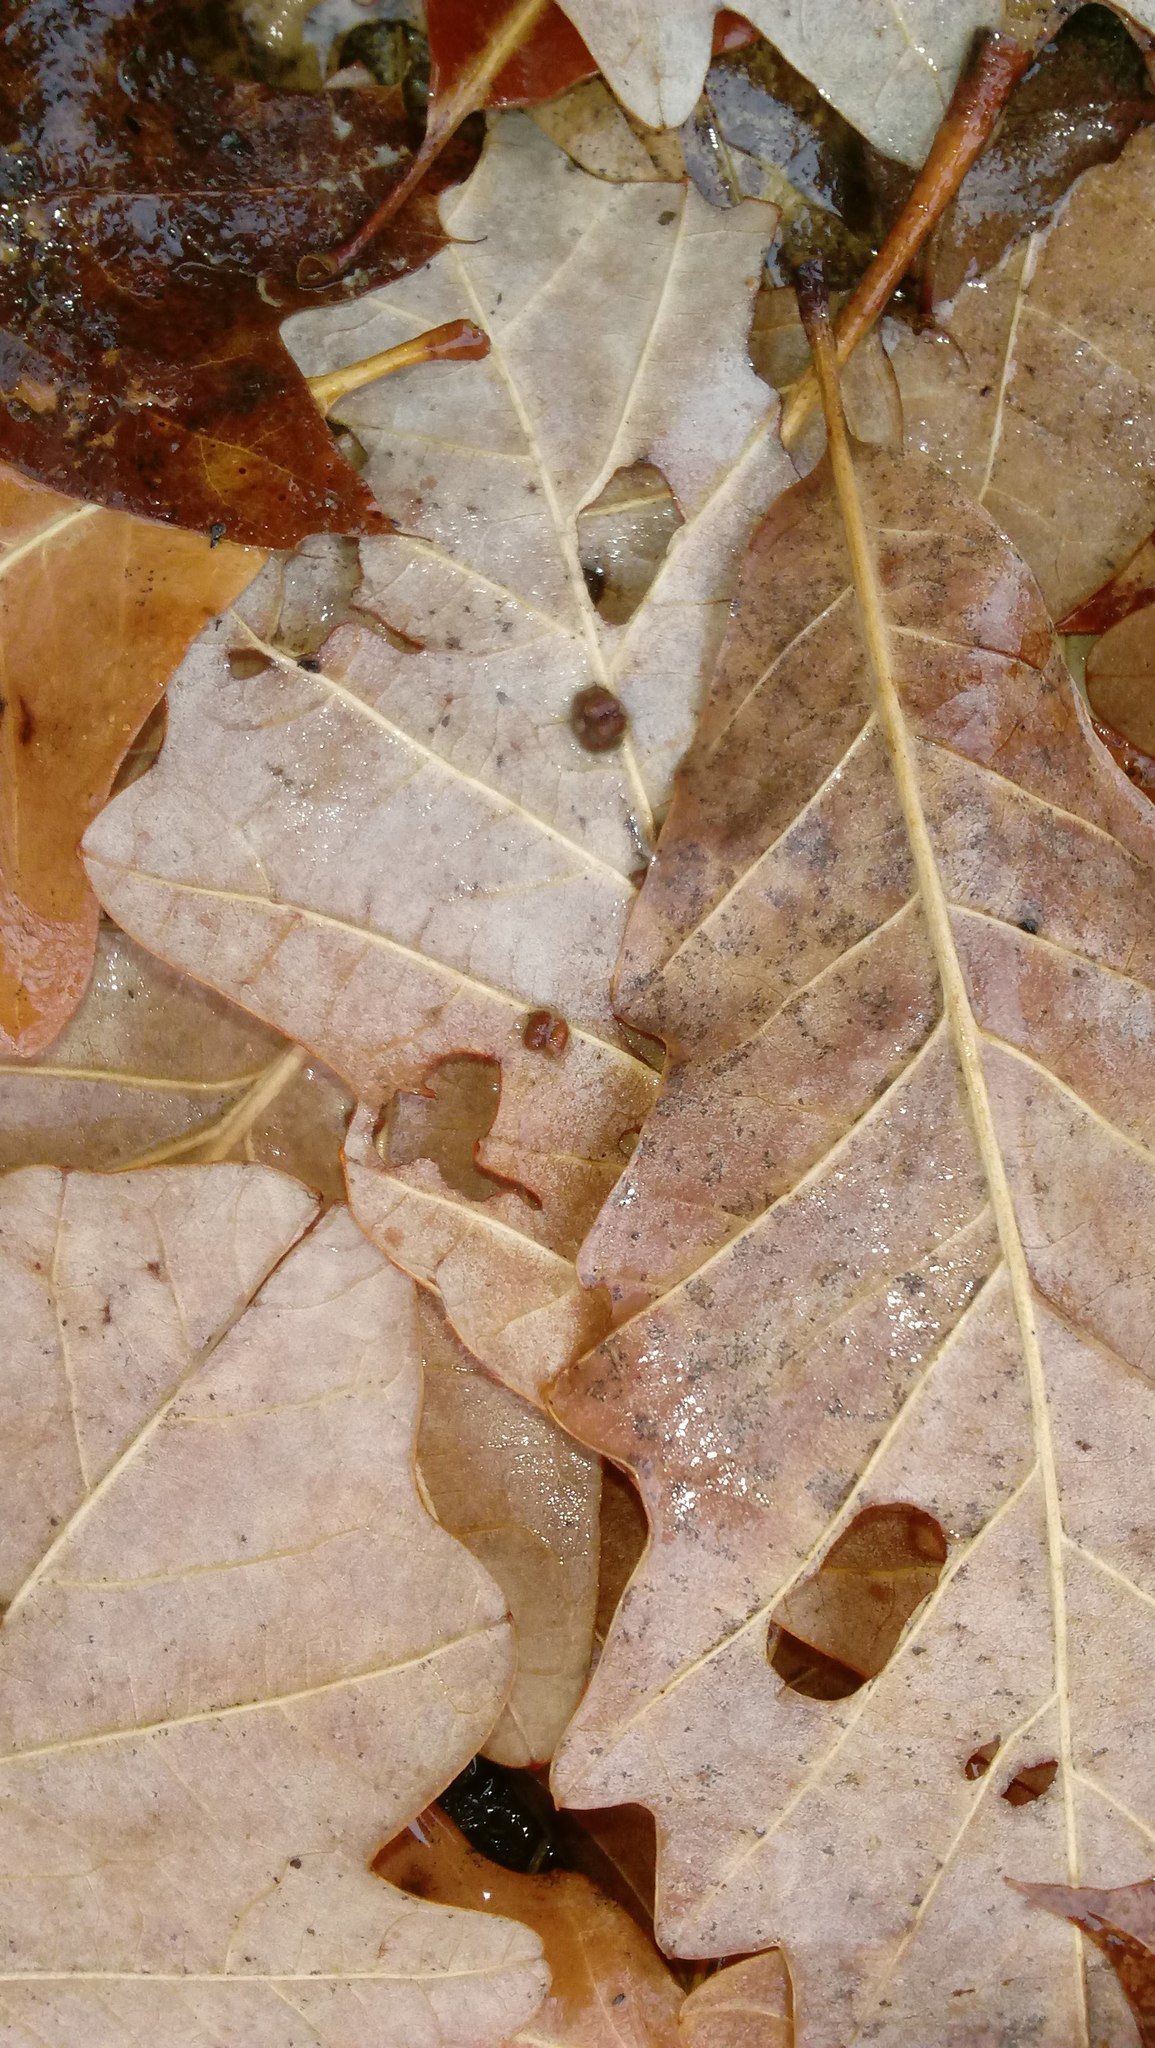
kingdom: Animalia
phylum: Arthropoda
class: Insecta
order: Hymenoptera
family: Cynipidae
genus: Andricus
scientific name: Andricus Druon ignotum
